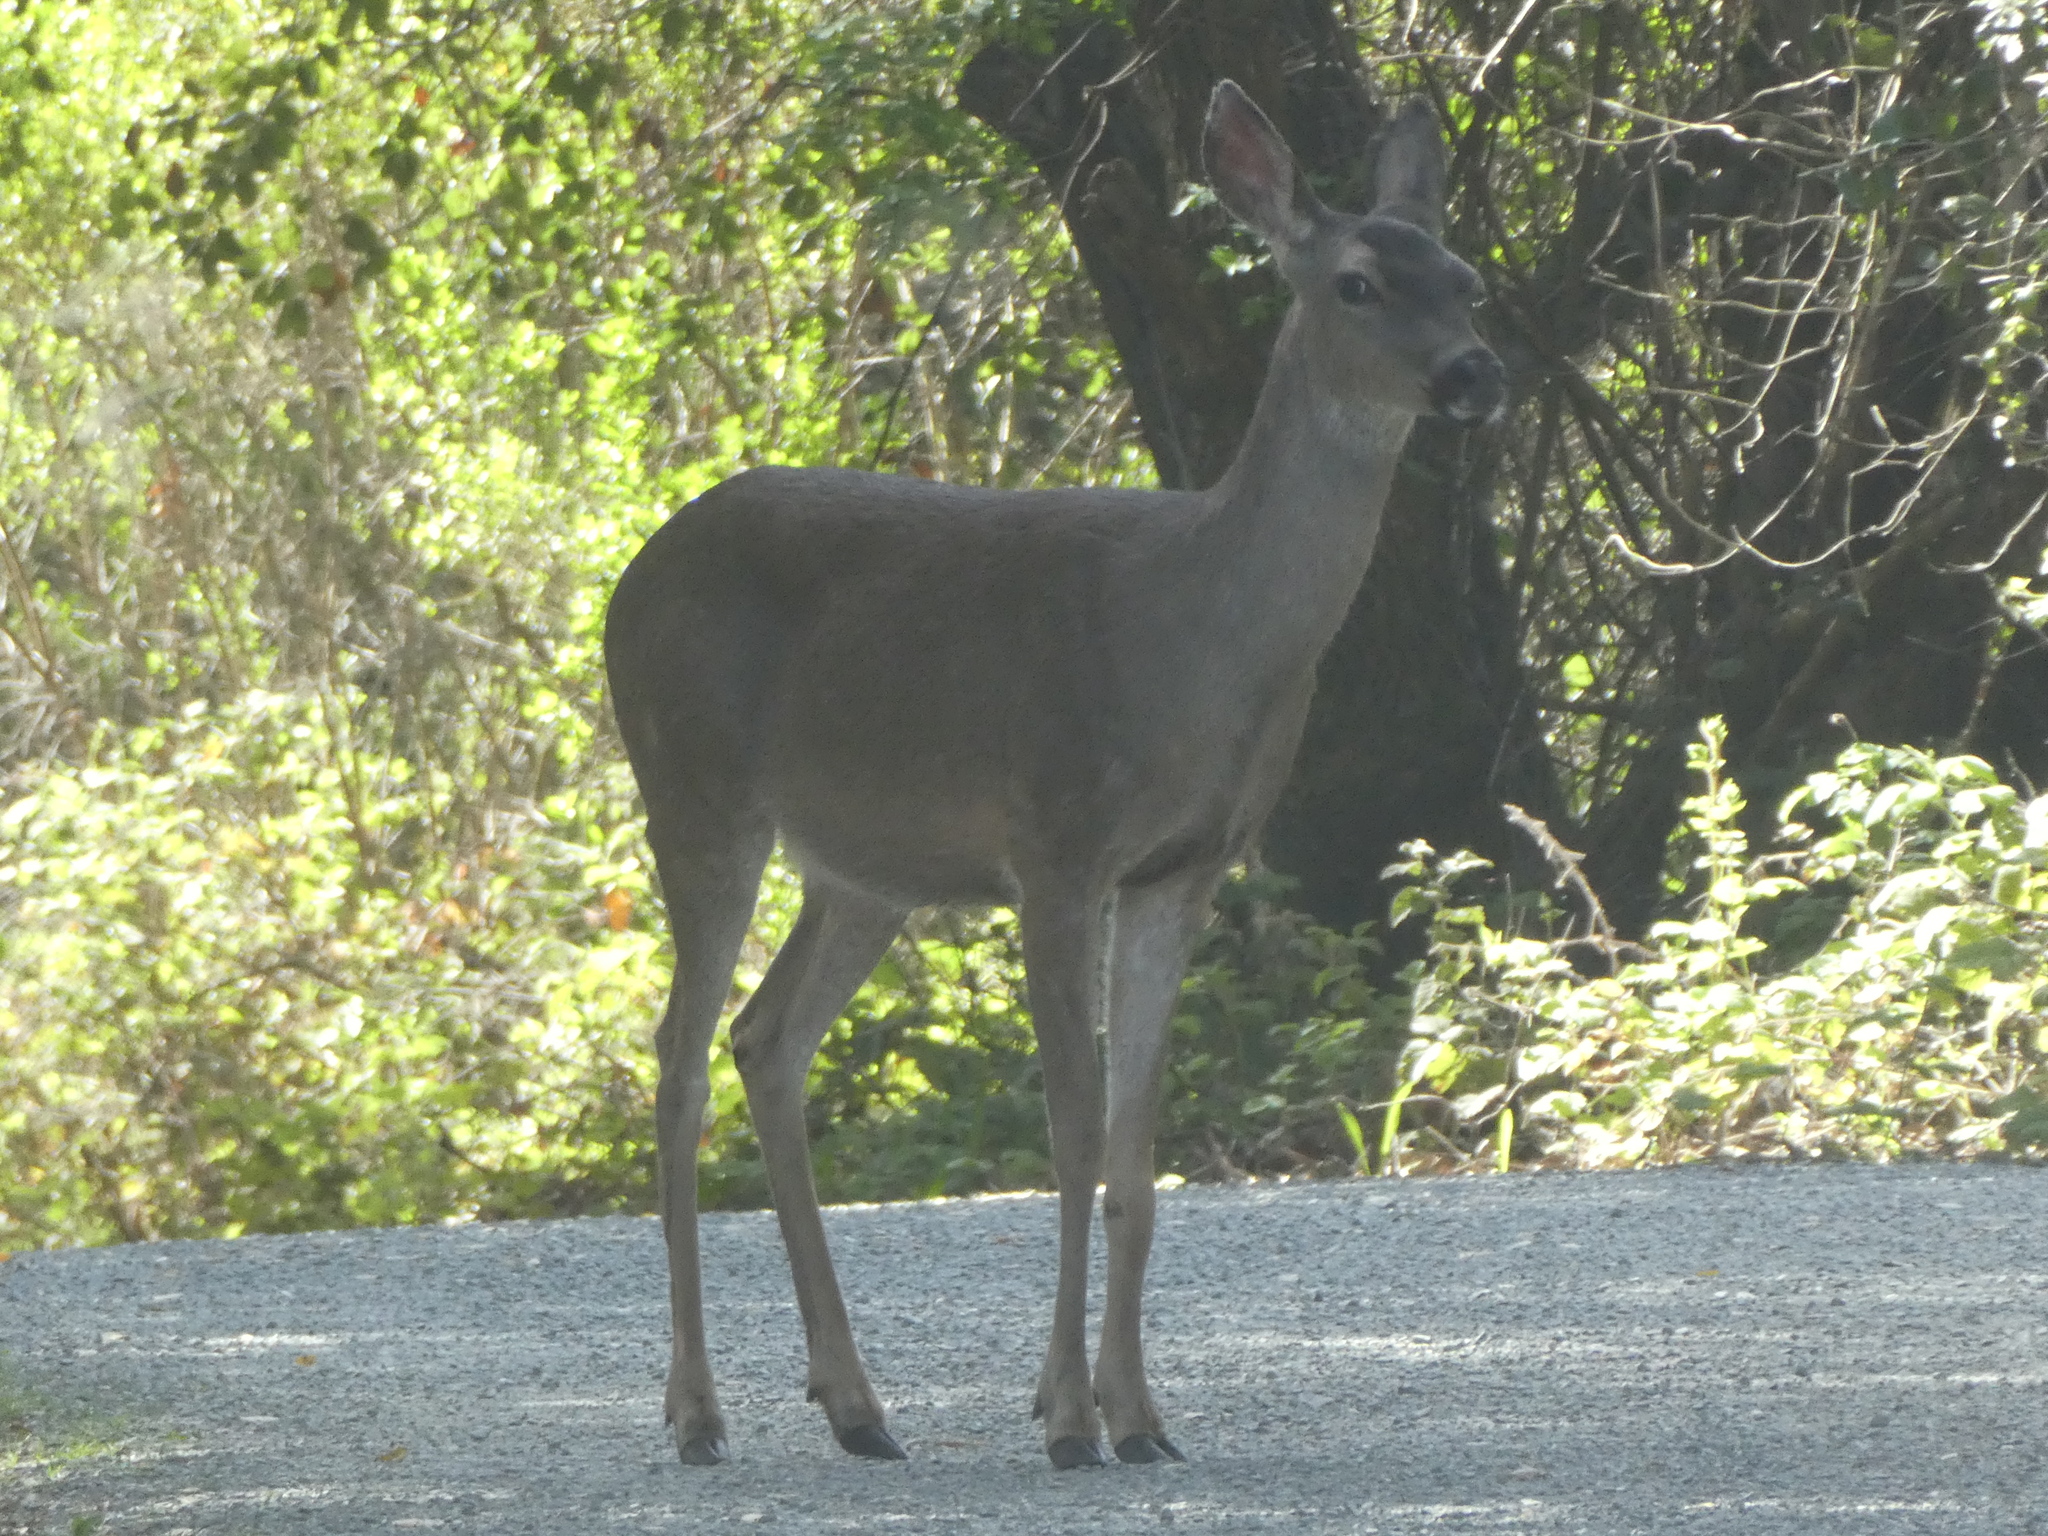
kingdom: Animalia
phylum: Chordata
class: Mammalia
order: Artiodactyla
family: Cervidae
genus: Odocoileus
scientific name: Odocoileus hemionus
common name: Mule deer
